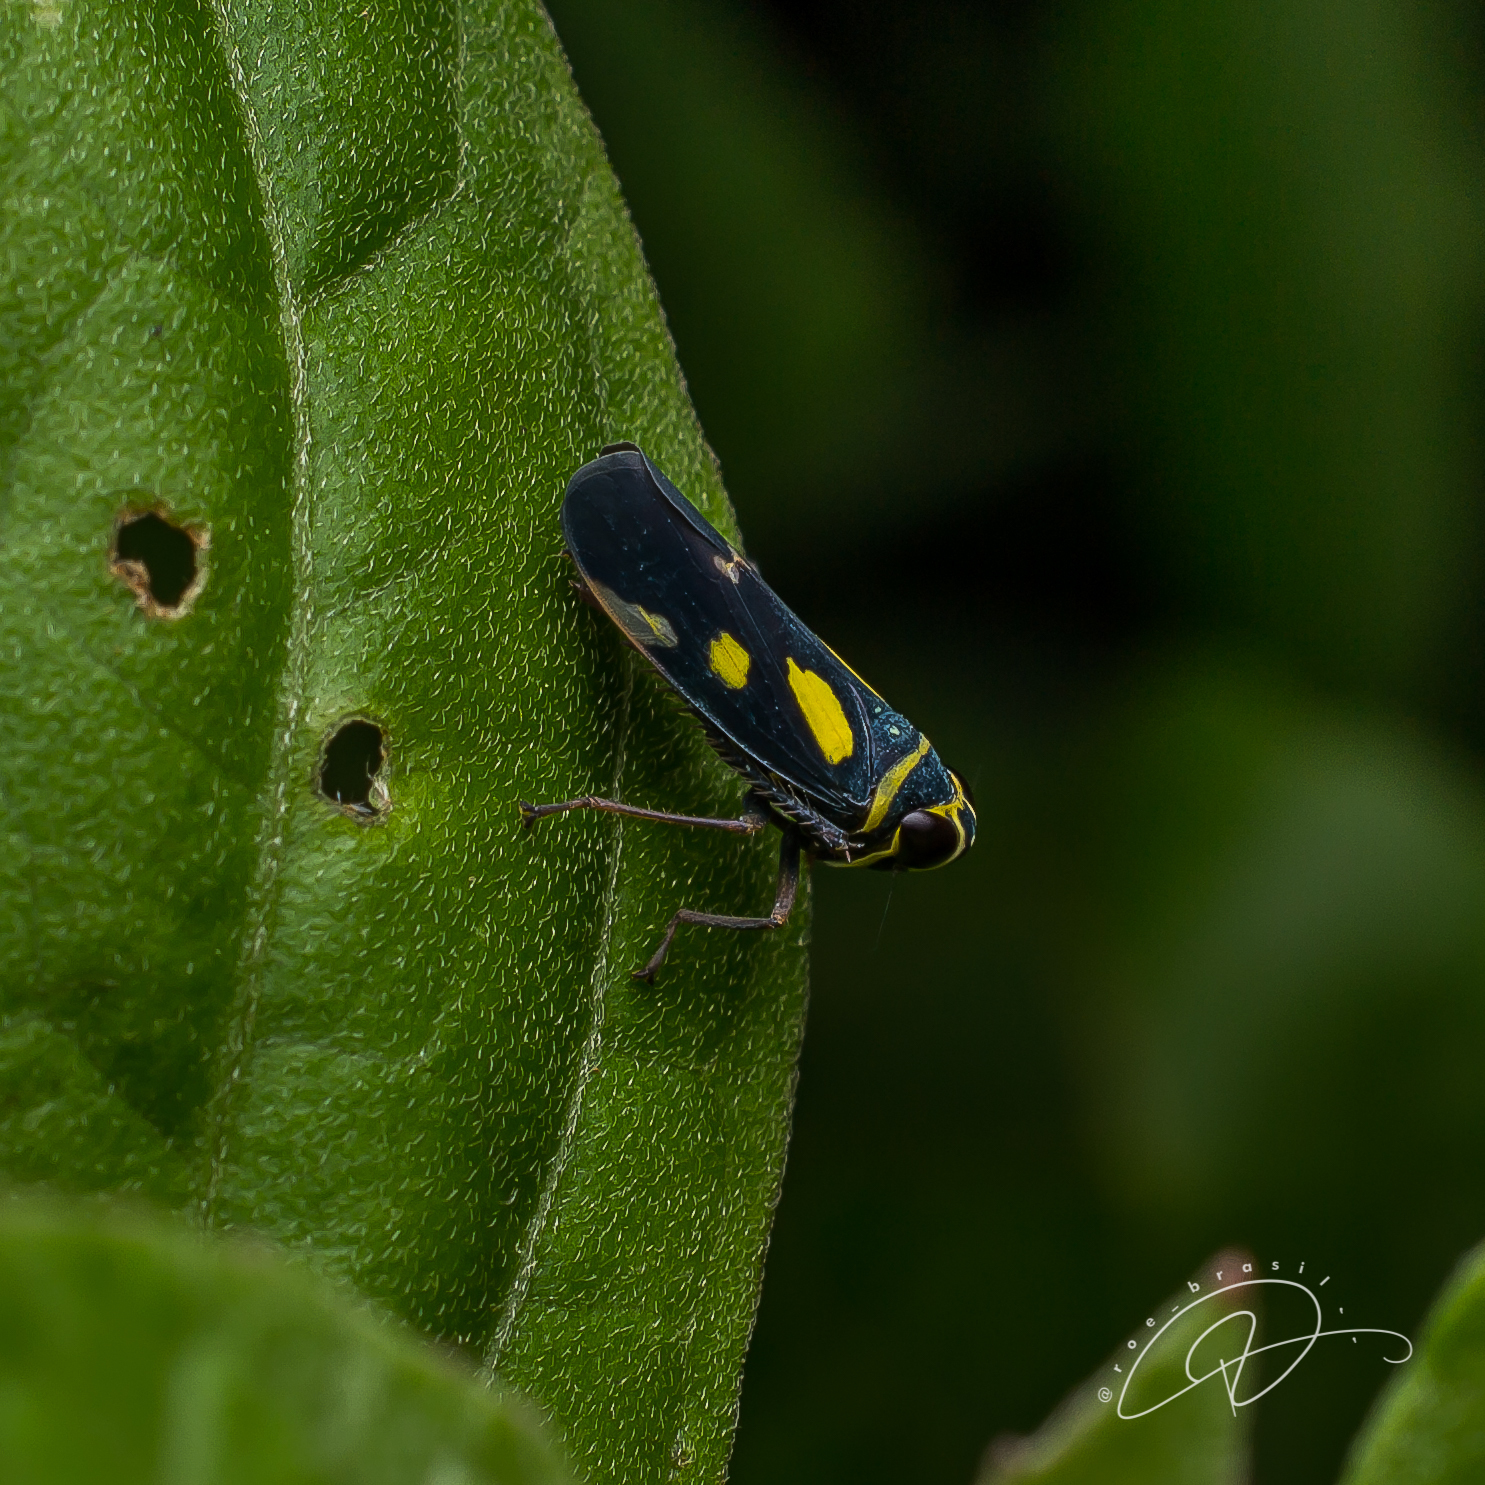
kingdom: Animalia
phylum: Arthropoda
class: Insecta
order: Hemiptera
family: Cicadellidae
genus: Jassolidia
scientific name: Jassolidia munda
